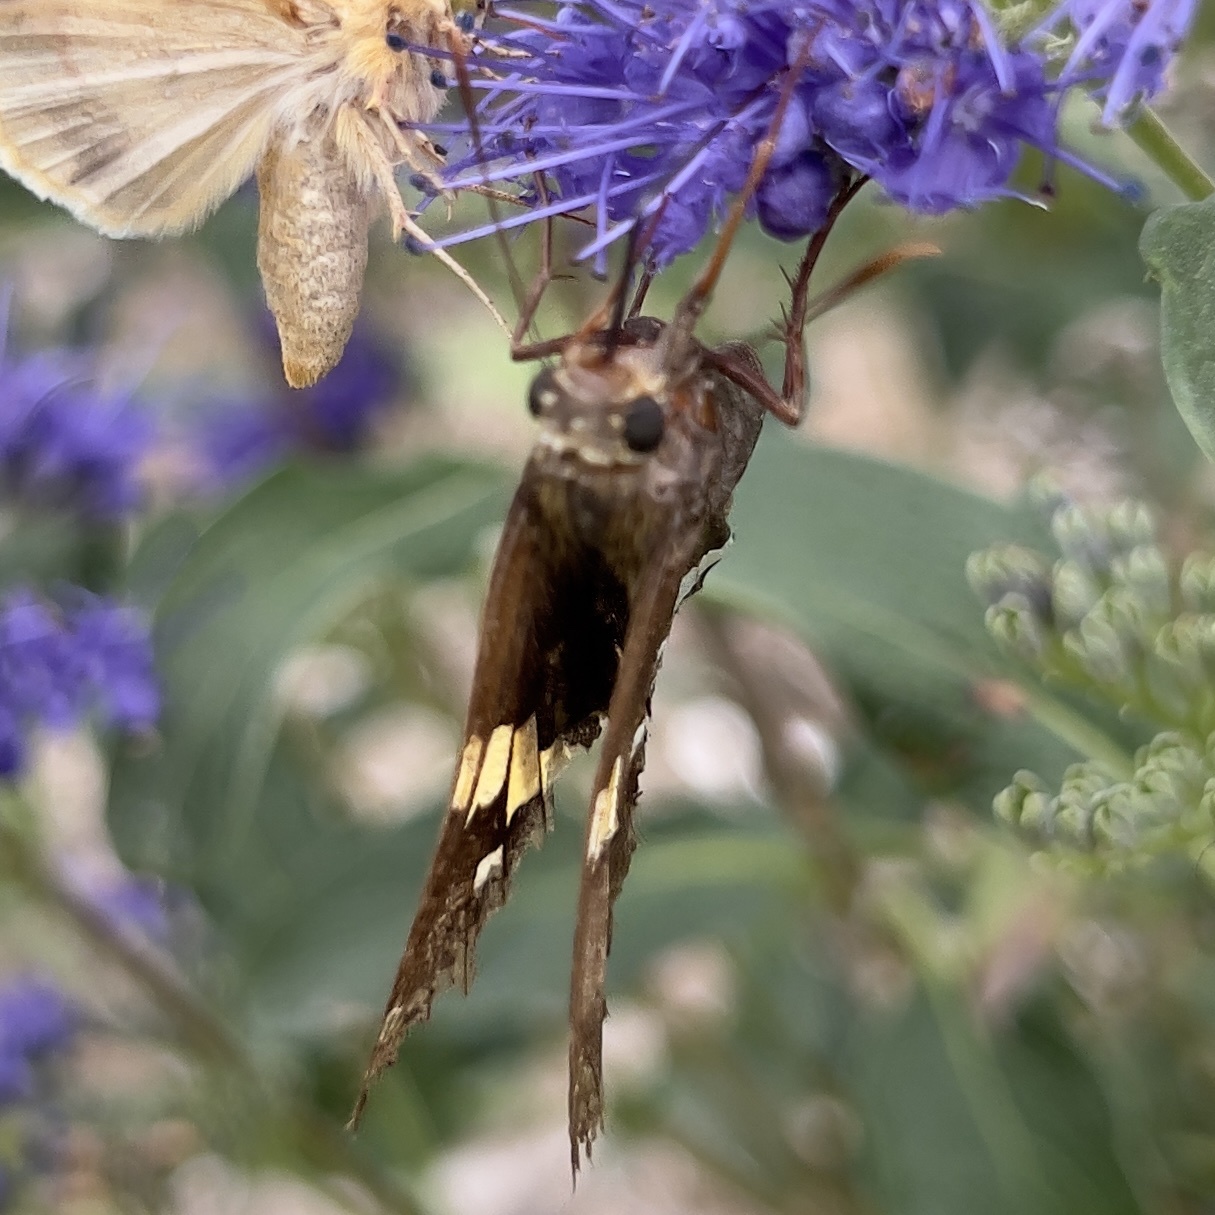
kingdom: Animalia
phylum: Arthropoda
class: Insecta
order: Lepidoptera
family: Hesperiidae
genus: Epargyreus
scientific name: Epargyreus clarus
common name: Silver-spotted skipper
